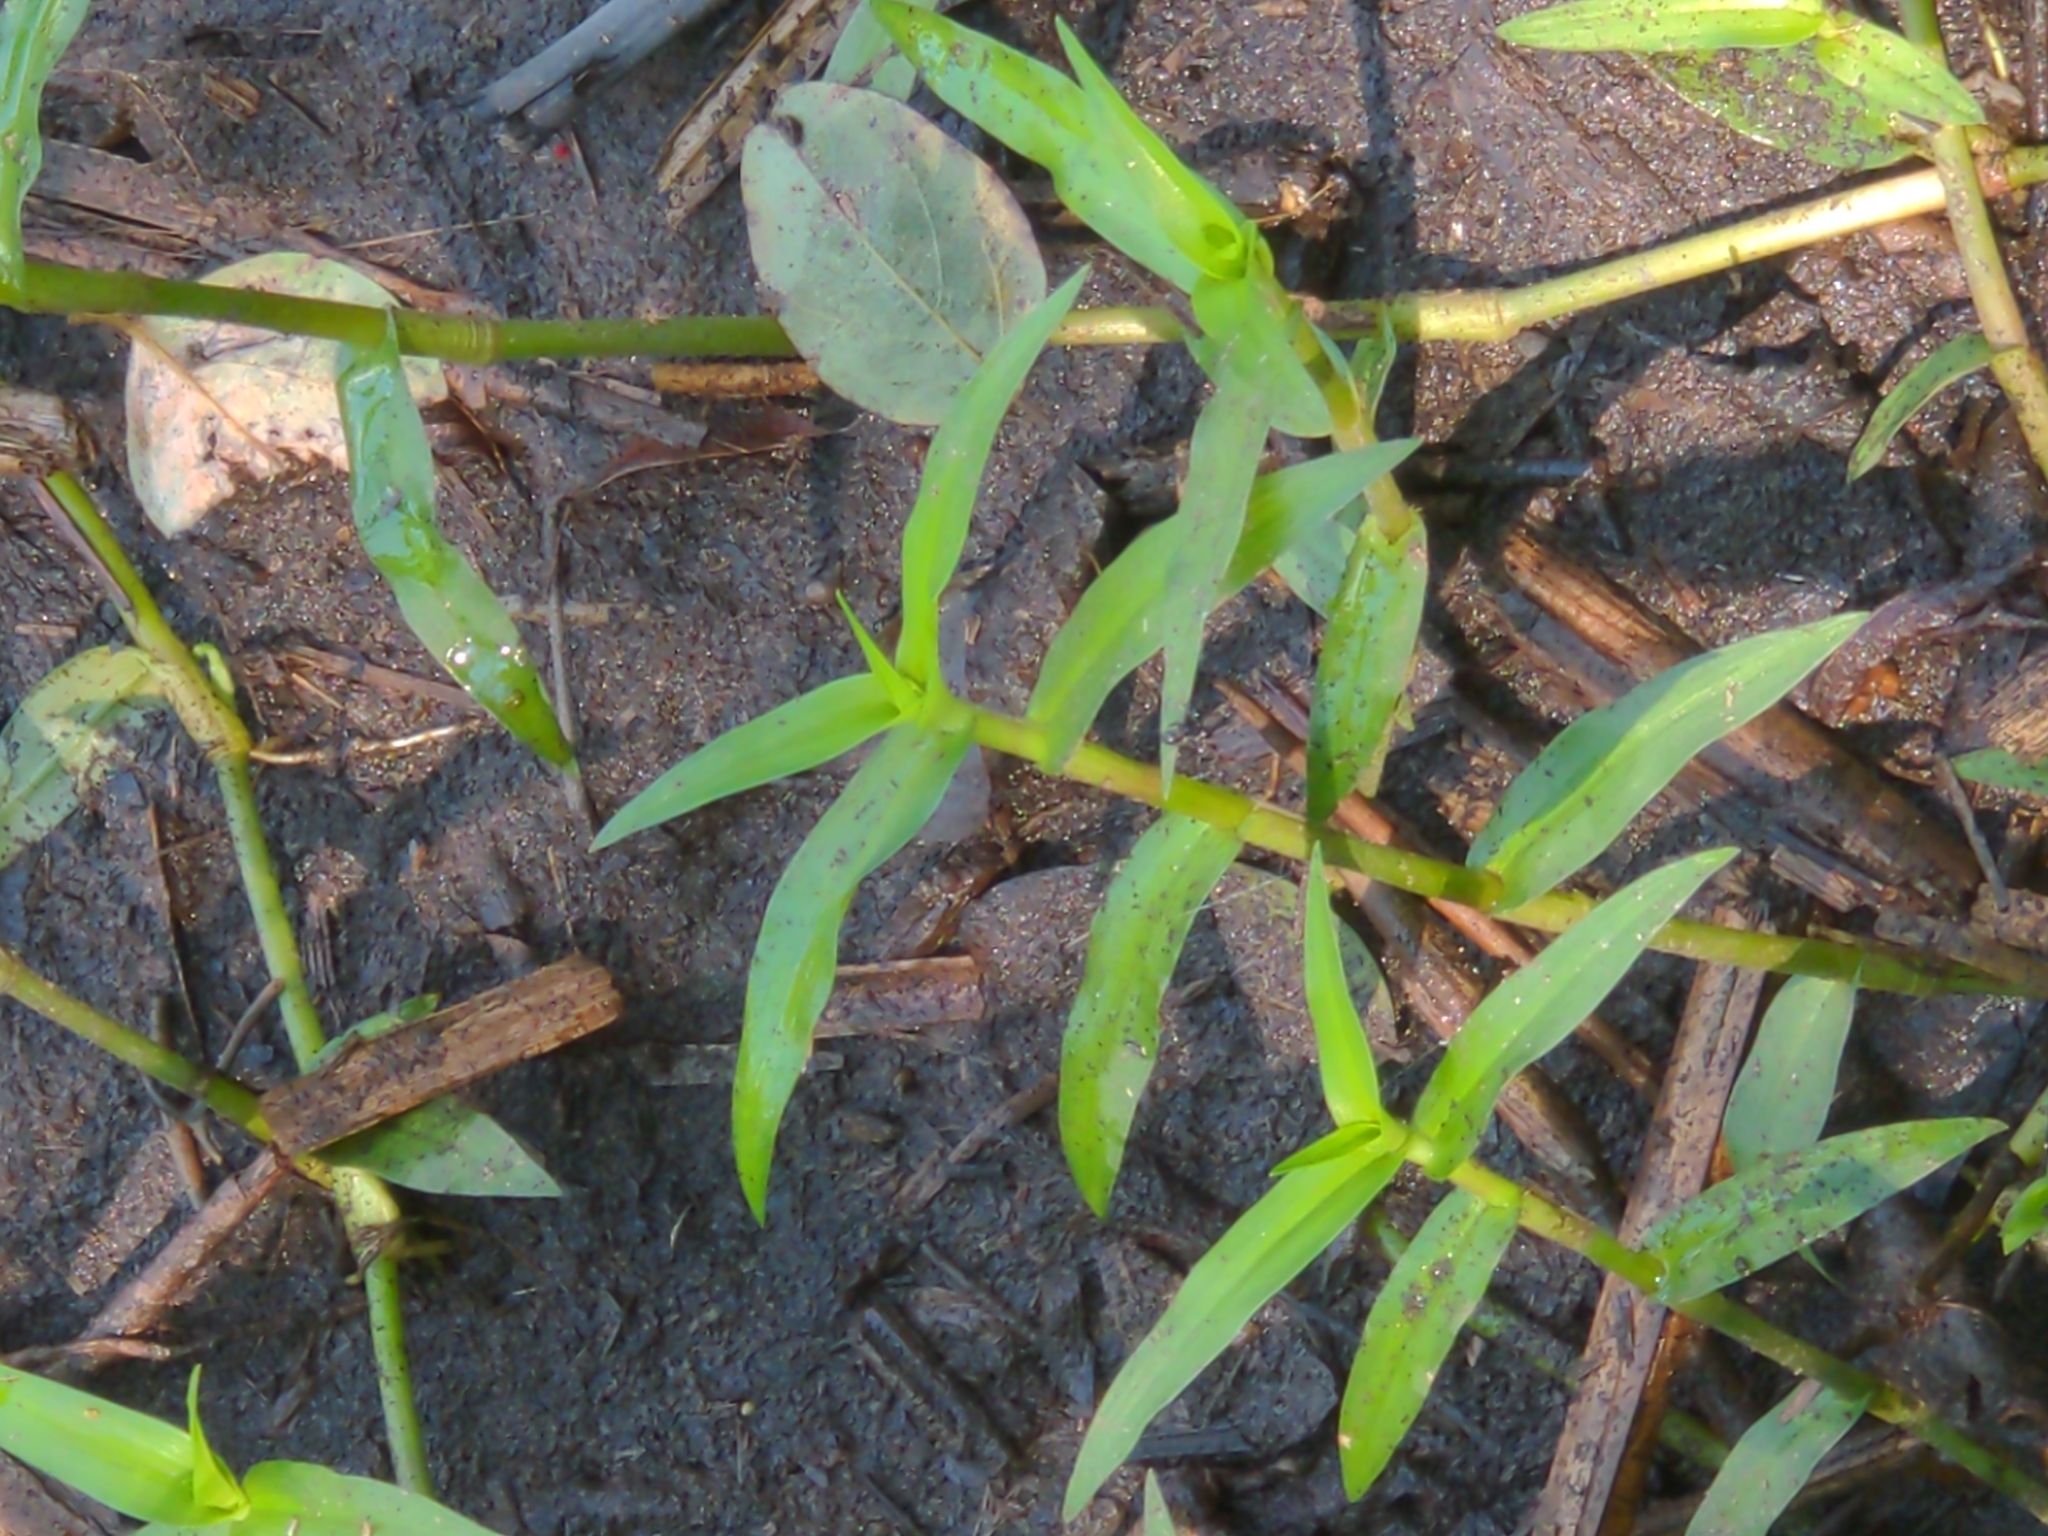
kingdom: Plantae
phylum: Tracheophyta
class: Liliopsida
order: Commelinales
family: Commelinaceae
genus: Murdannia
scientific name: Murdannia keisak
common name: Wartremoving herb
